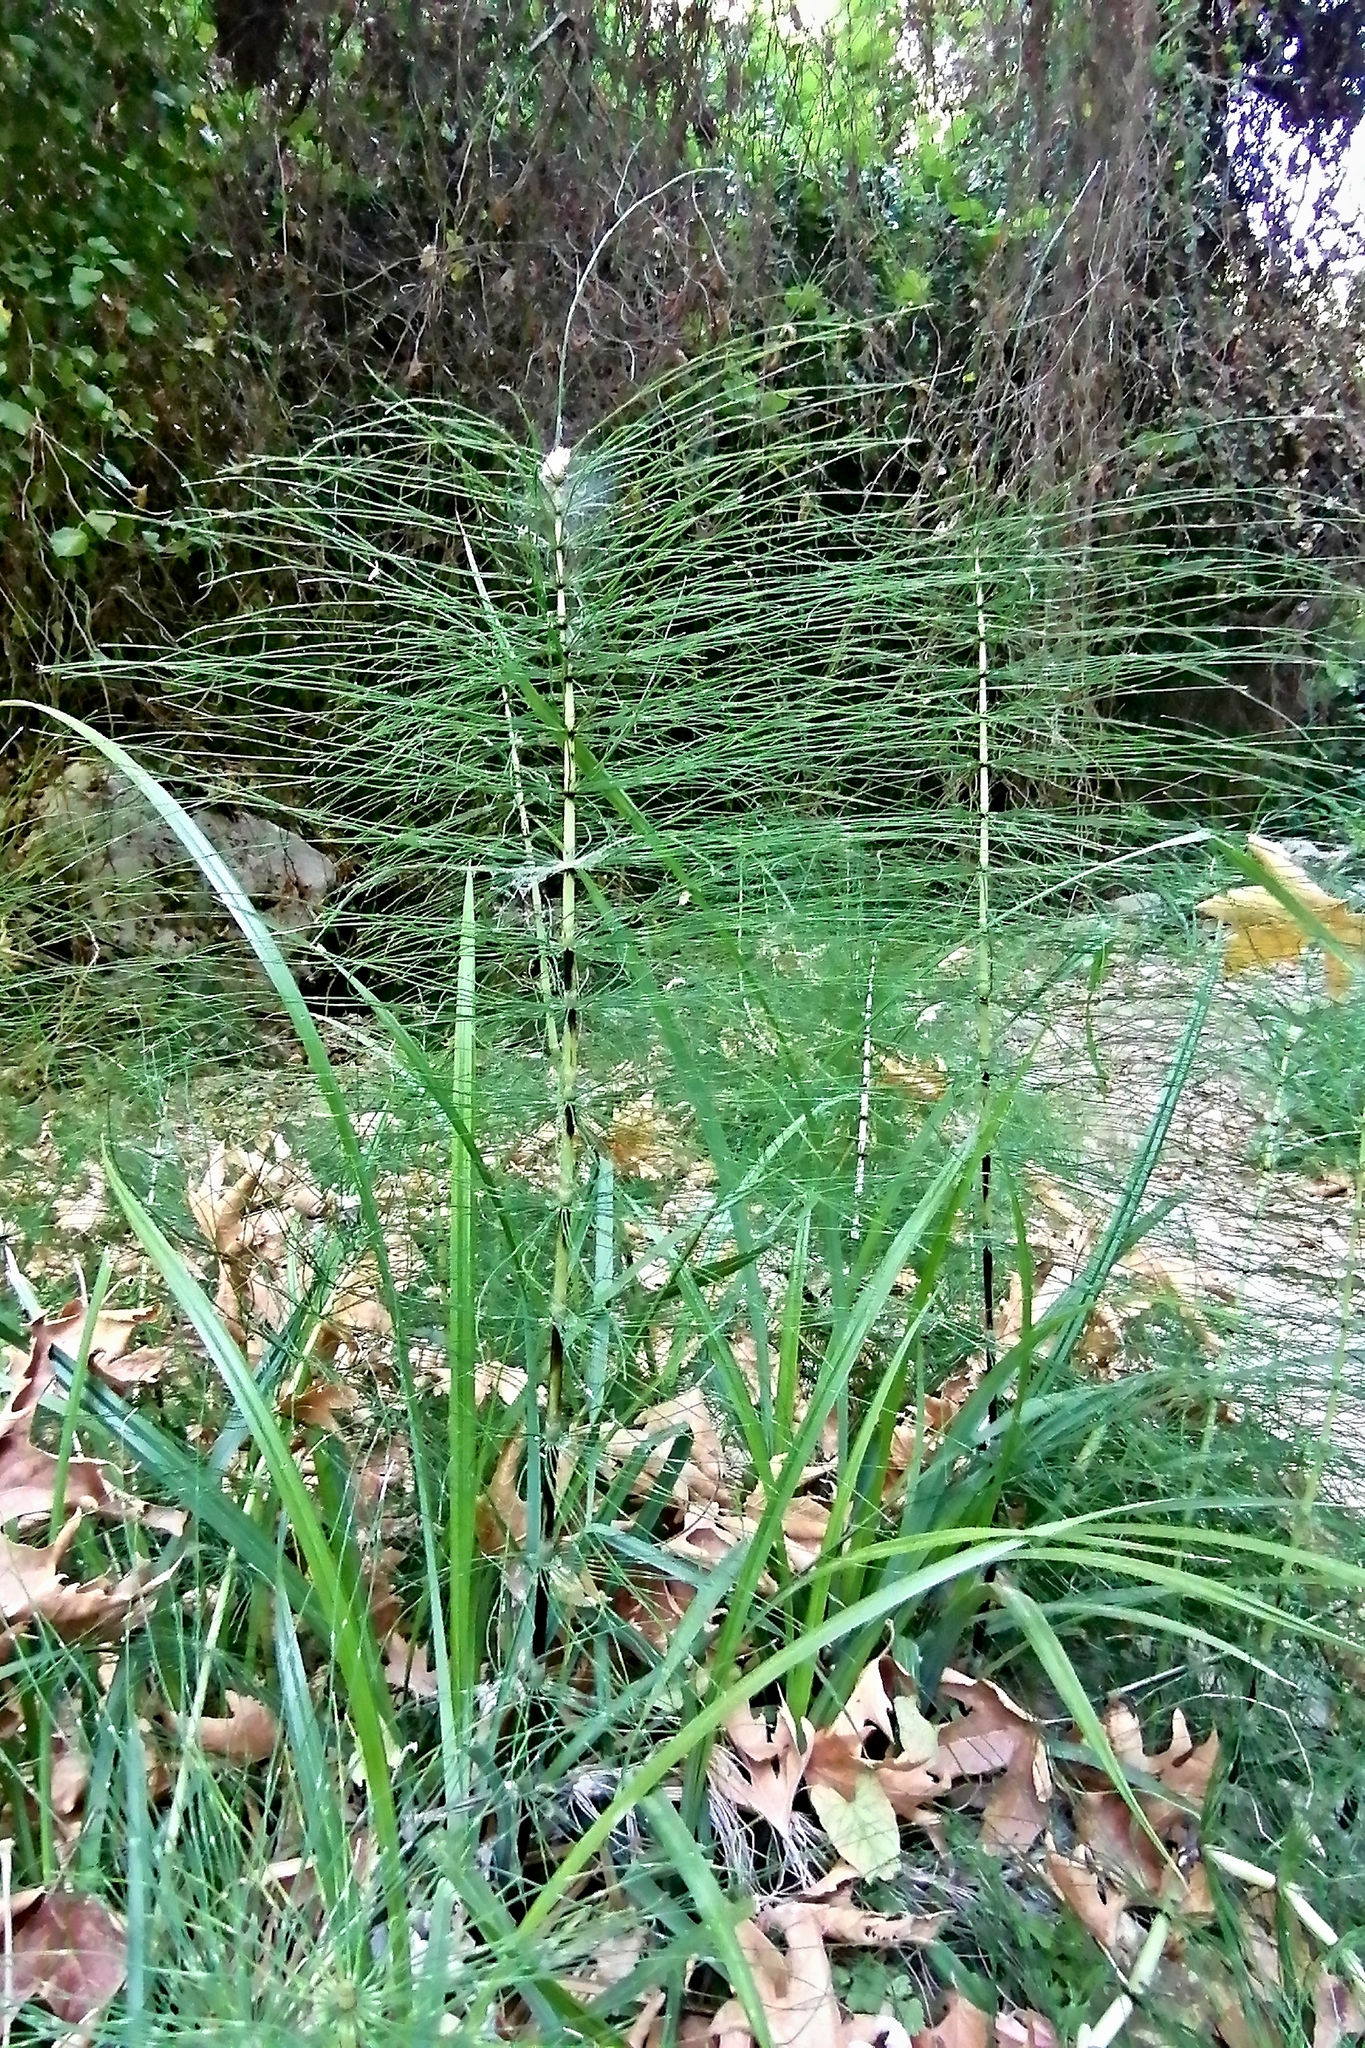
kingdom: Plantae
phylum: Tracheophyta
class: Polypodiopsida
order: Equisetales
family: Equisetaceae
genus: Equisetum
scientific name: Equisetum telmateia
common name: Great horsetail
